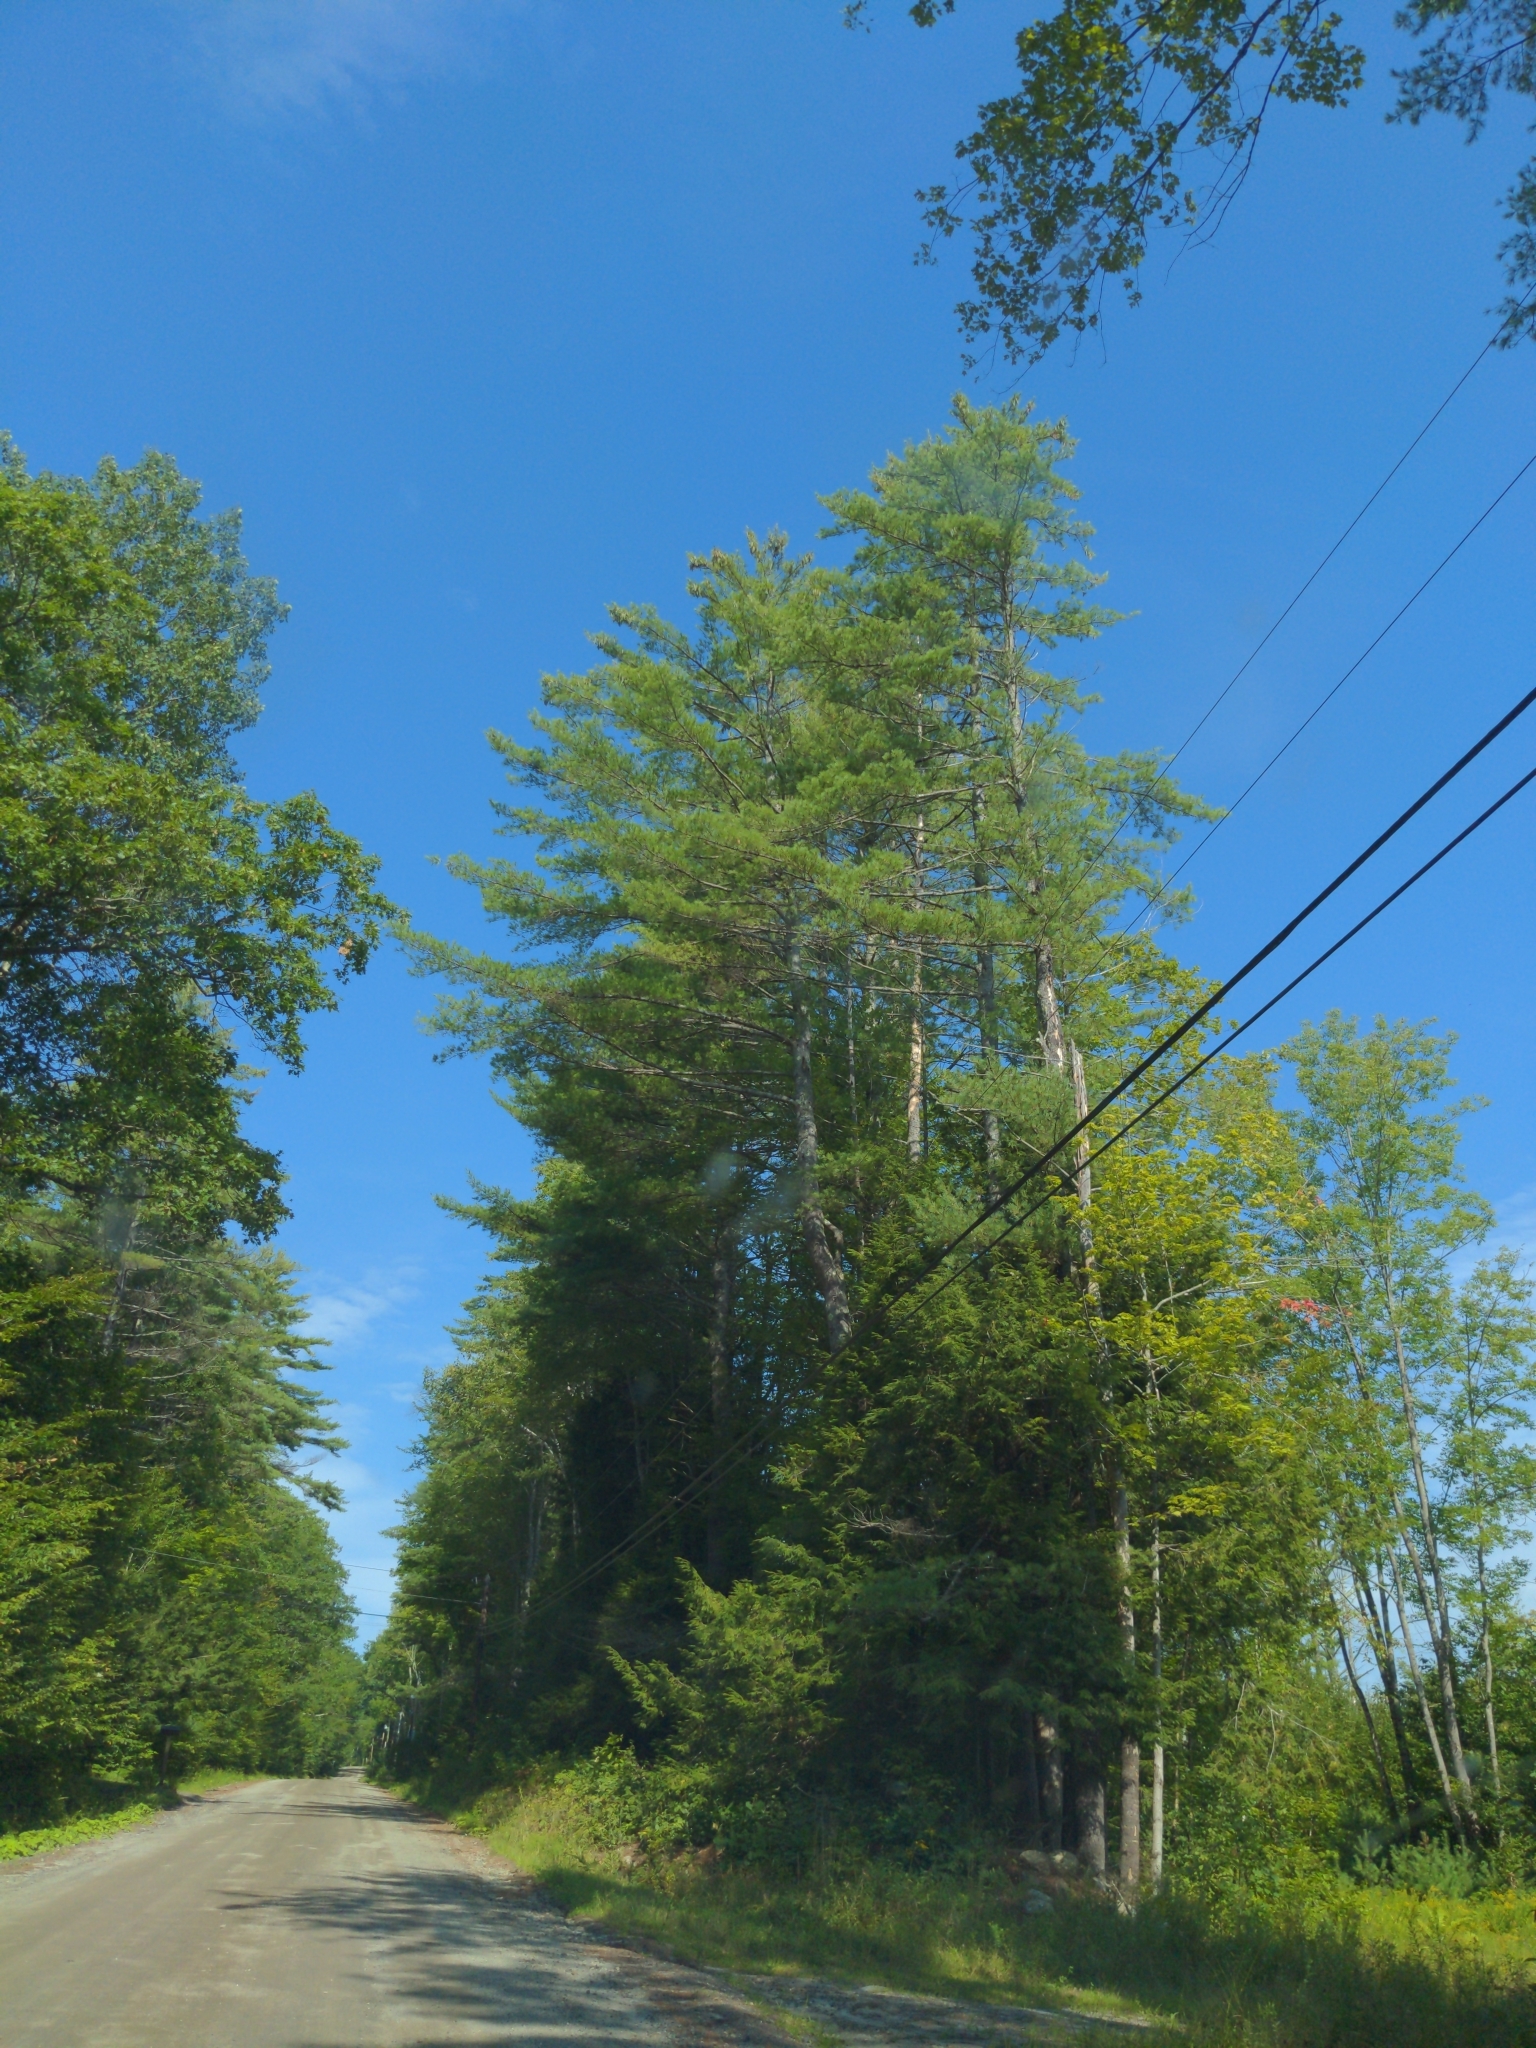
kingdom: Plantae
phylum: Tracheophyta
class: Pinopsida
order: Pinales
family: Pinaceae
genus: Pinus
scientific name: Pinus strobus
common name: Weymouth pine
